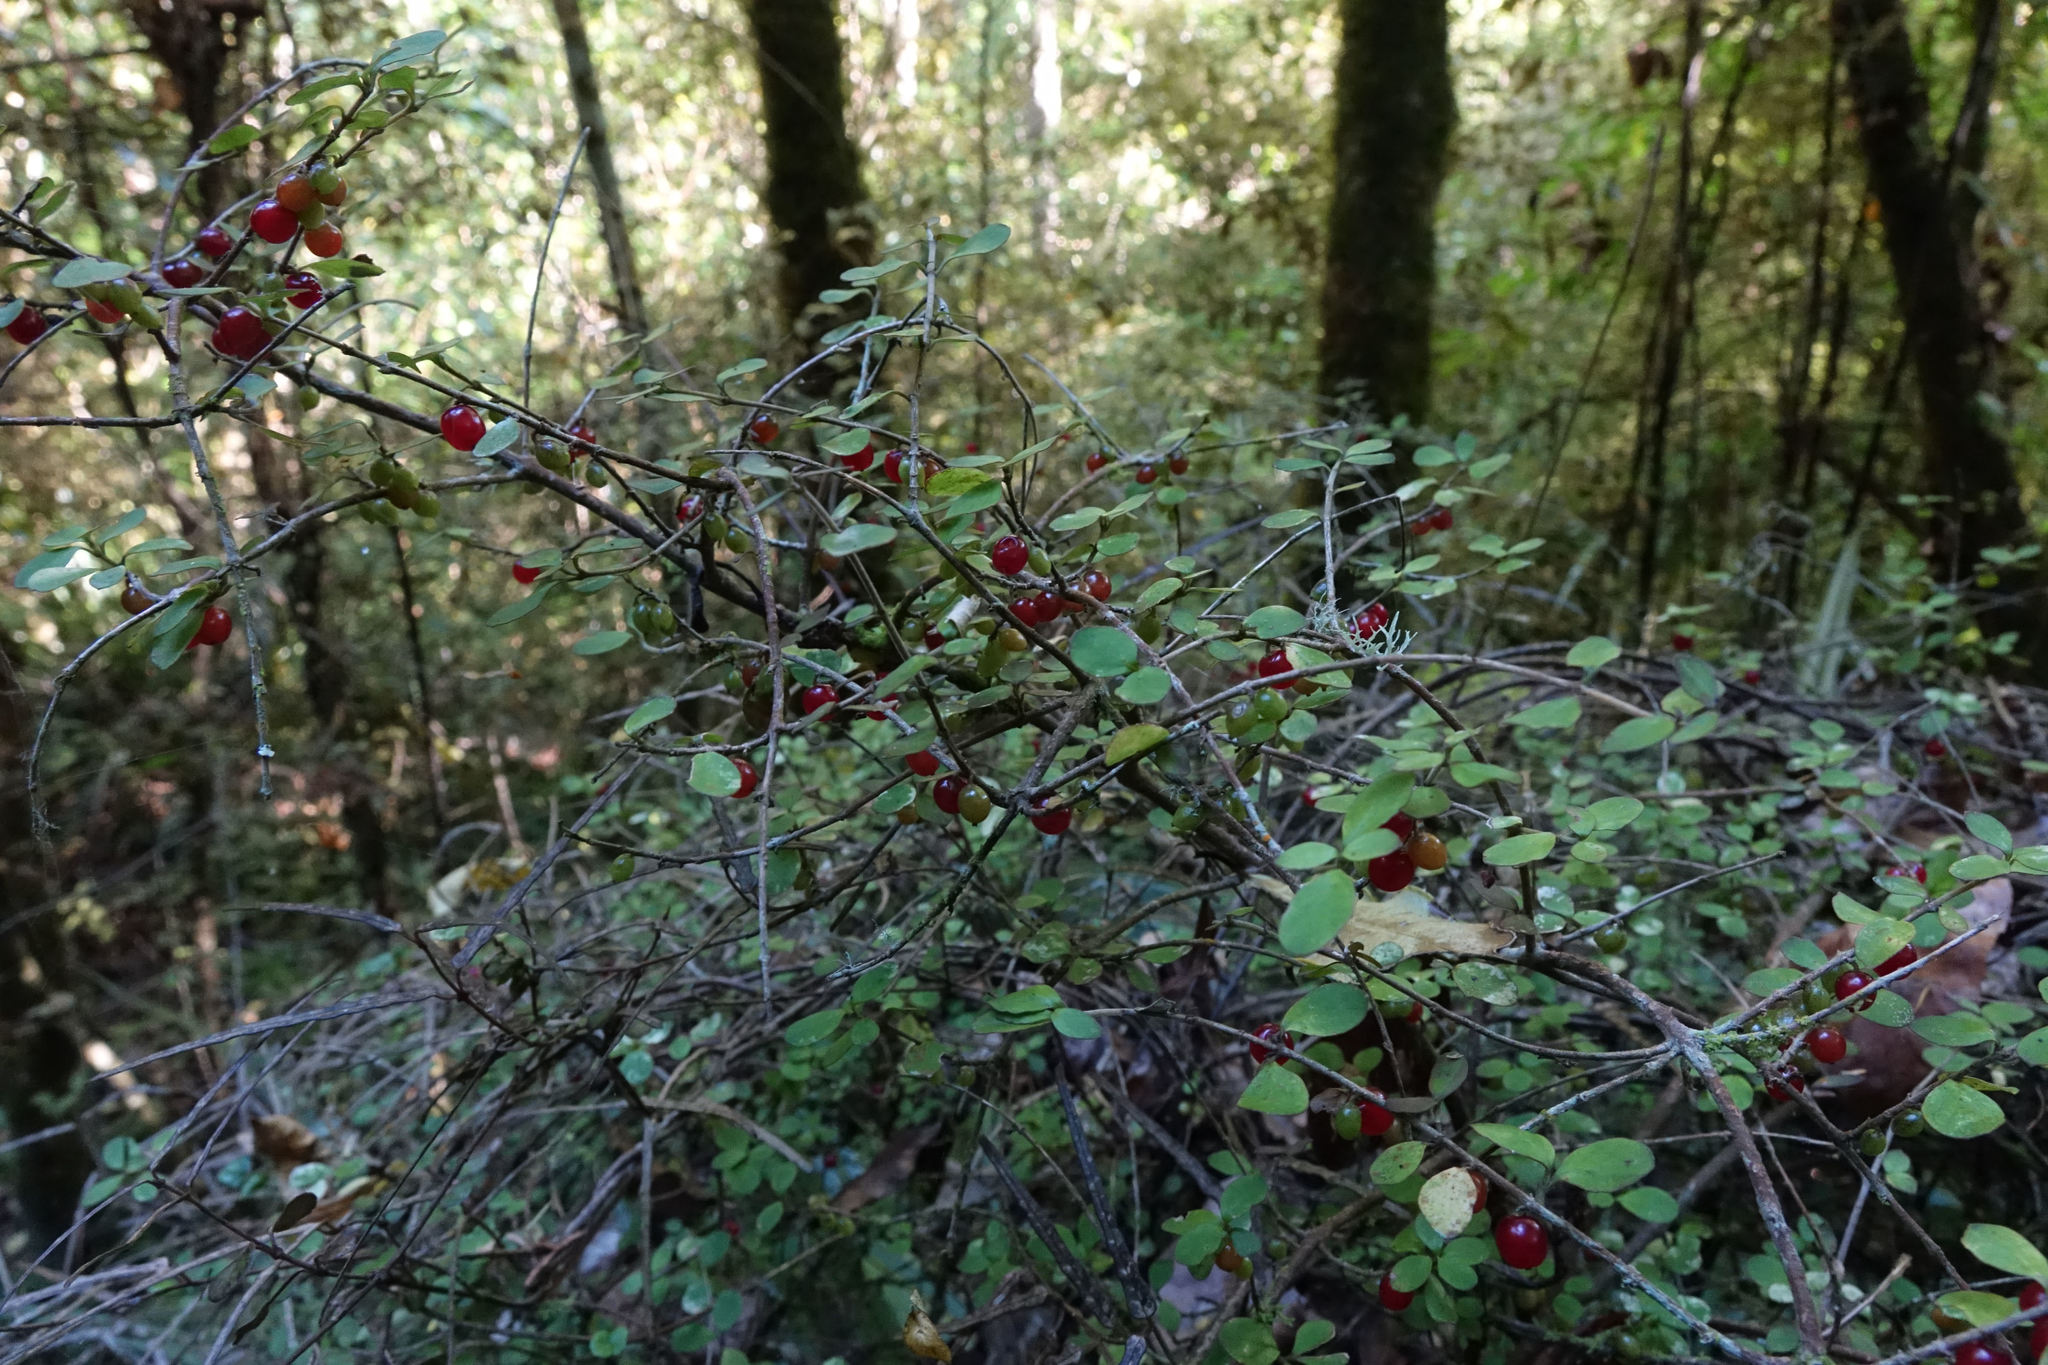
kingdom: Plantae
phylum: Tracheophyta
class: Magnoliopsida
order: Gentianales
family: Rubiaceae
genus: Coprosma
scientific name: Coprosma rhamnoides
